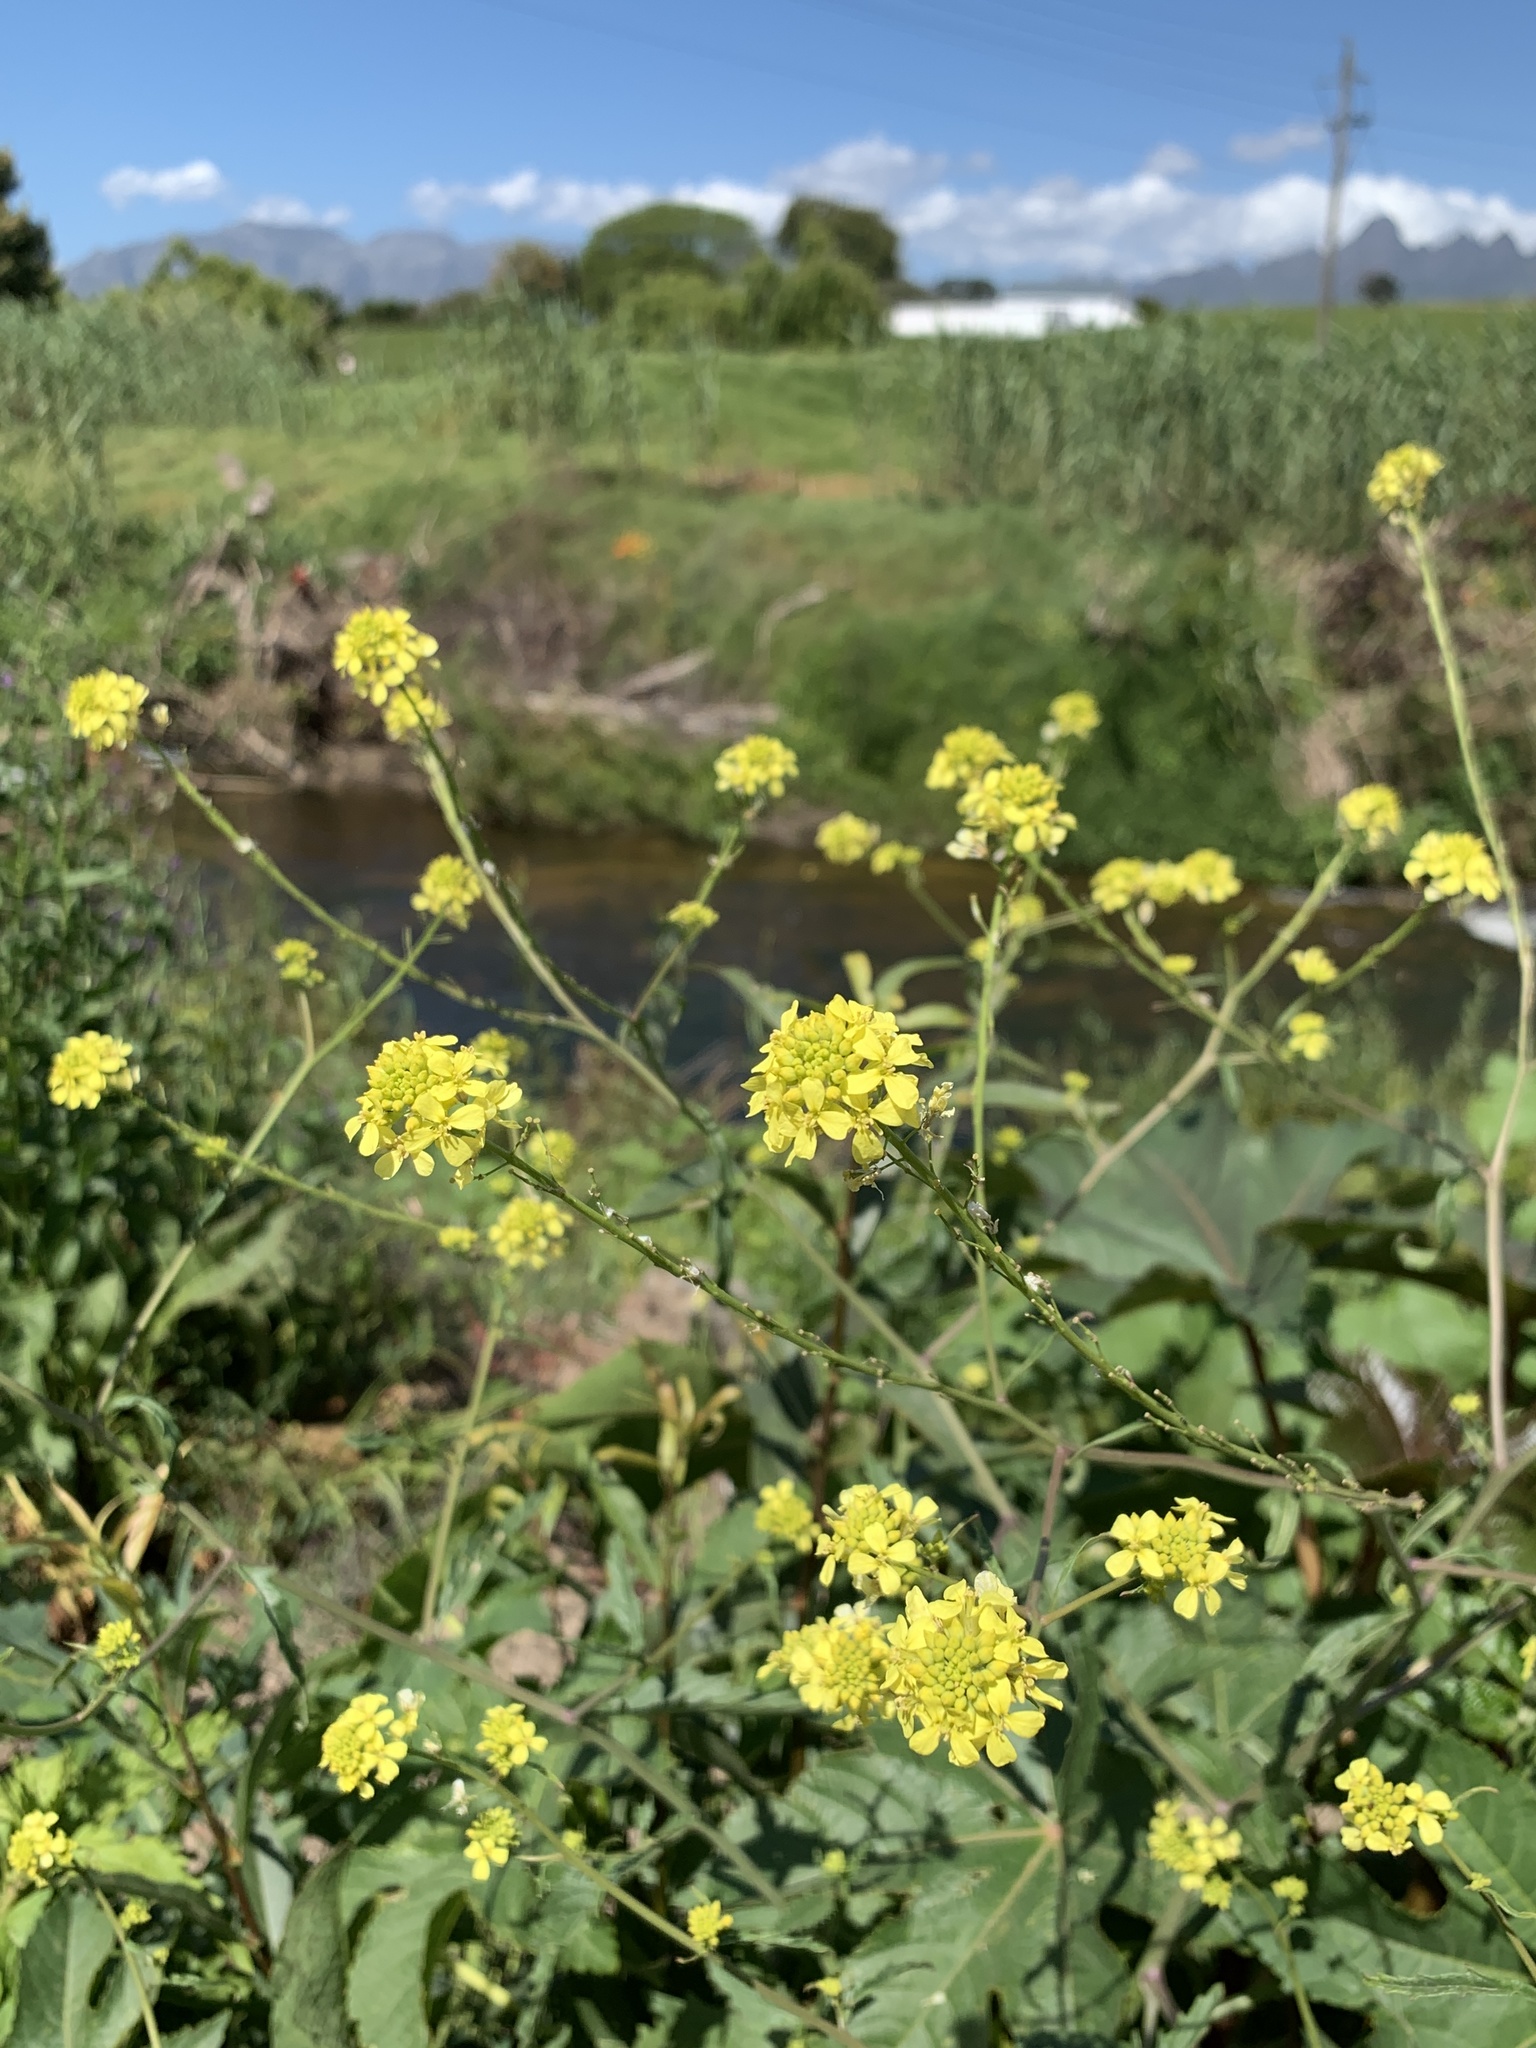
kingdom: Plantae
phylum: Tracheophyta
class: Magnoliopsida
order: Brassicales
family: Brassicaceae
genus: Rapistrum
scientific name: Rapistrum rugosum
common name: Annual bastardcabbage
